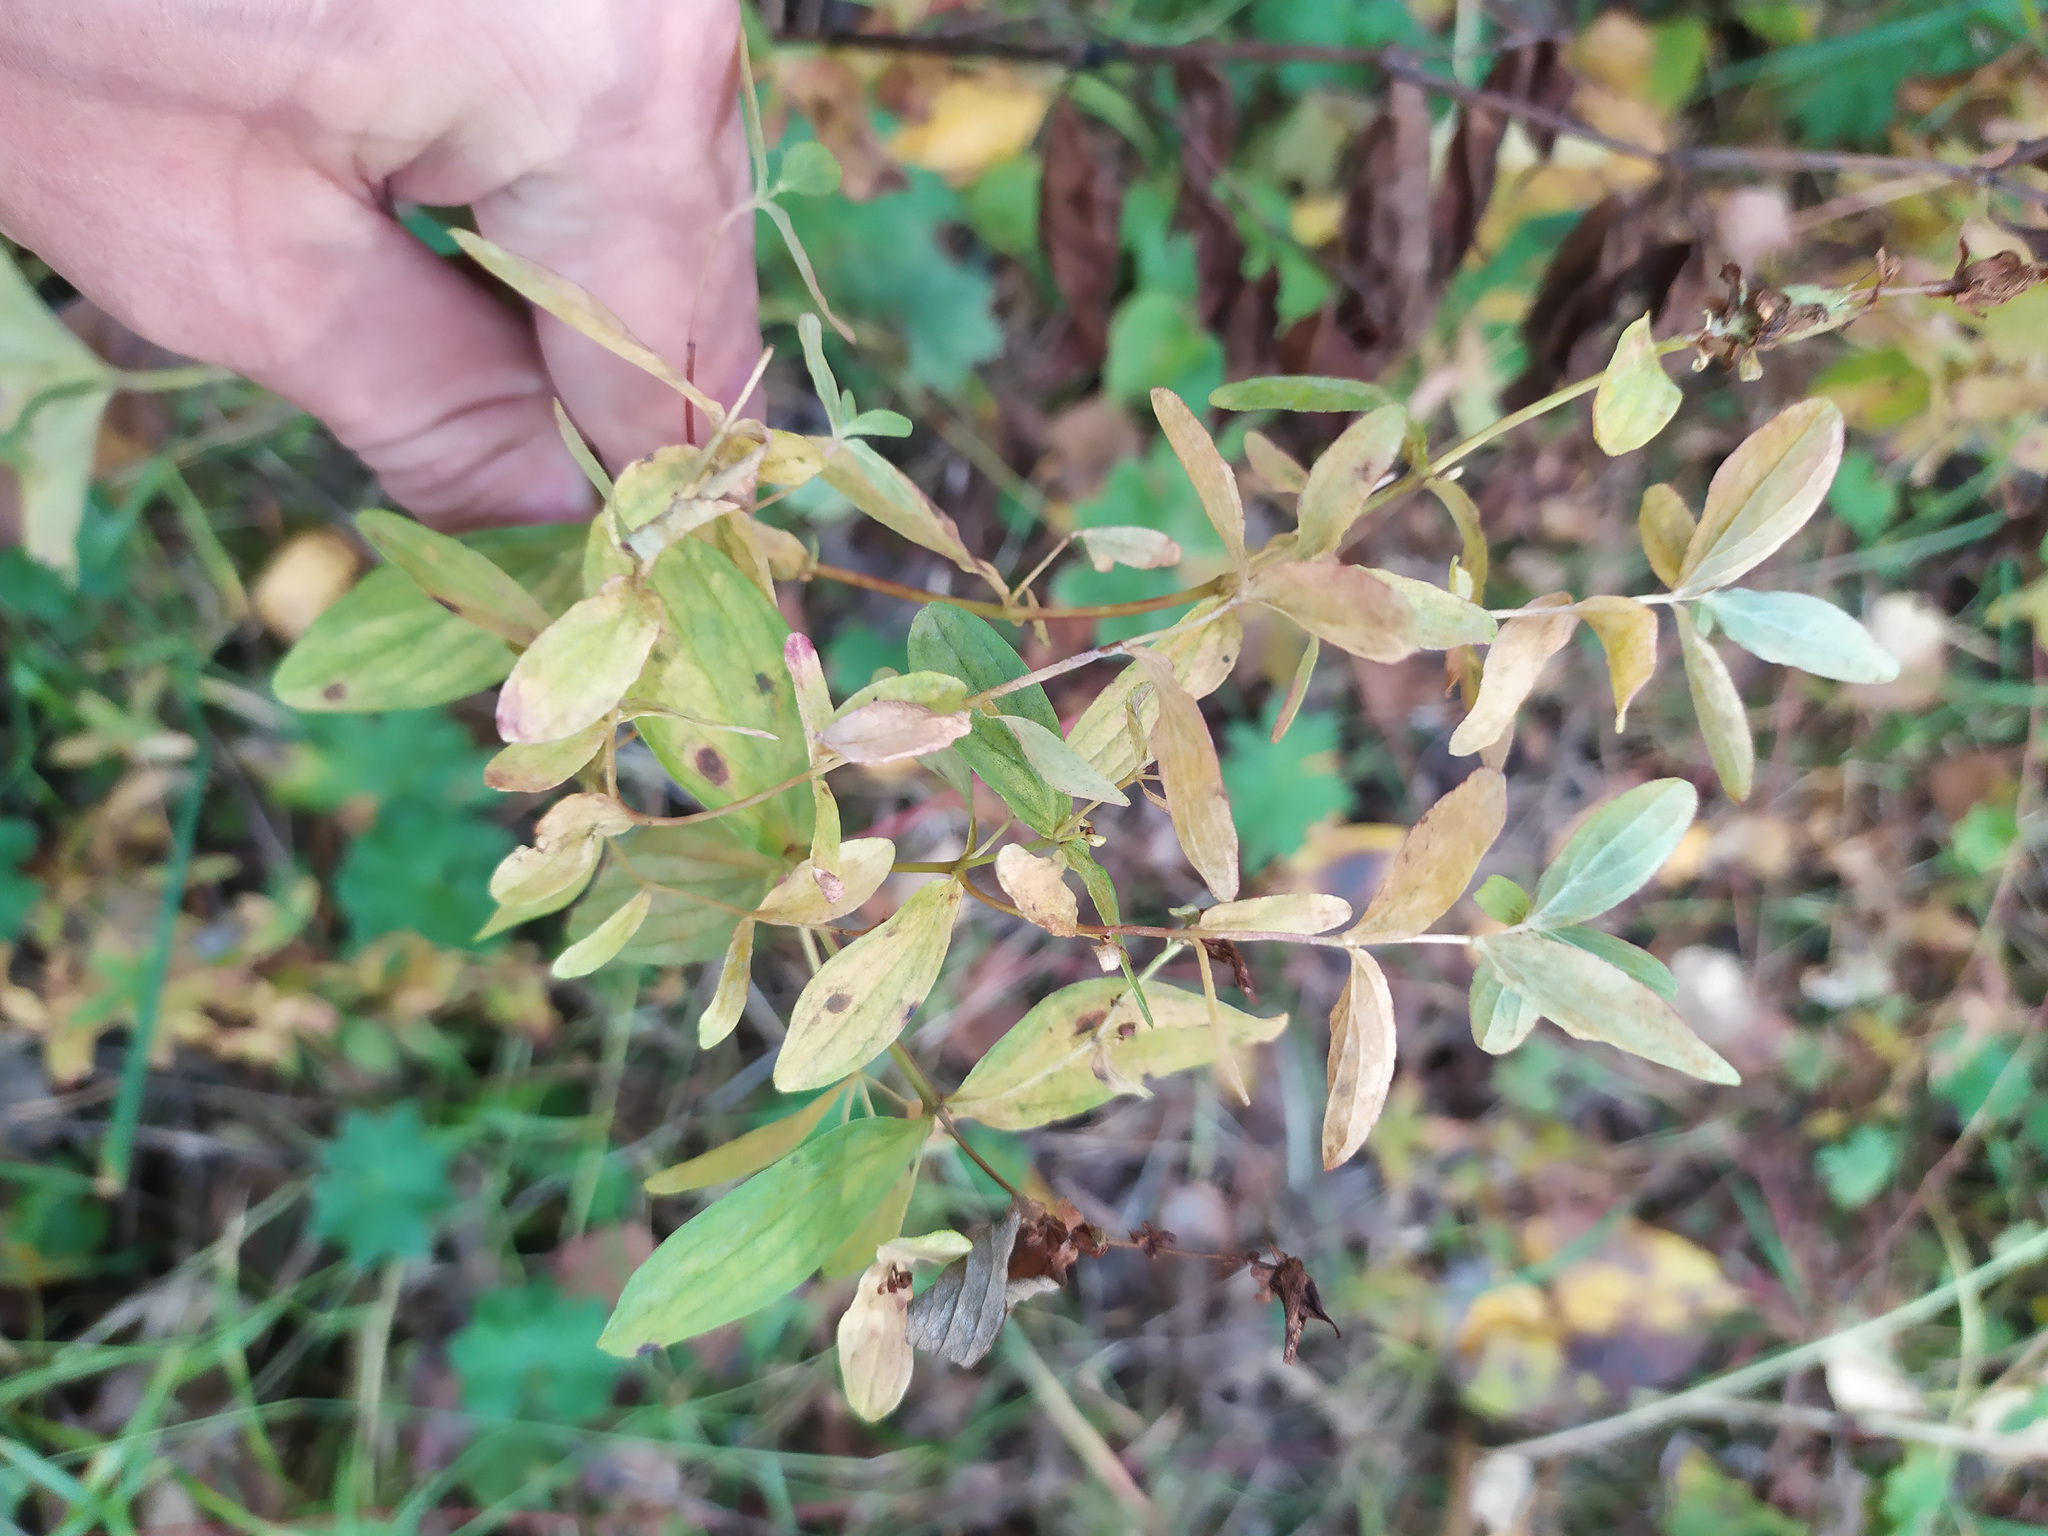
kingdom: Plantae
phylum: Tracheophyta
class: Magnoliopsida
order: Malpighiales
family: Hypericaceae
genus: Hypericum
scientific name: Hypericum perforatum
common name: Common st. johnswort
